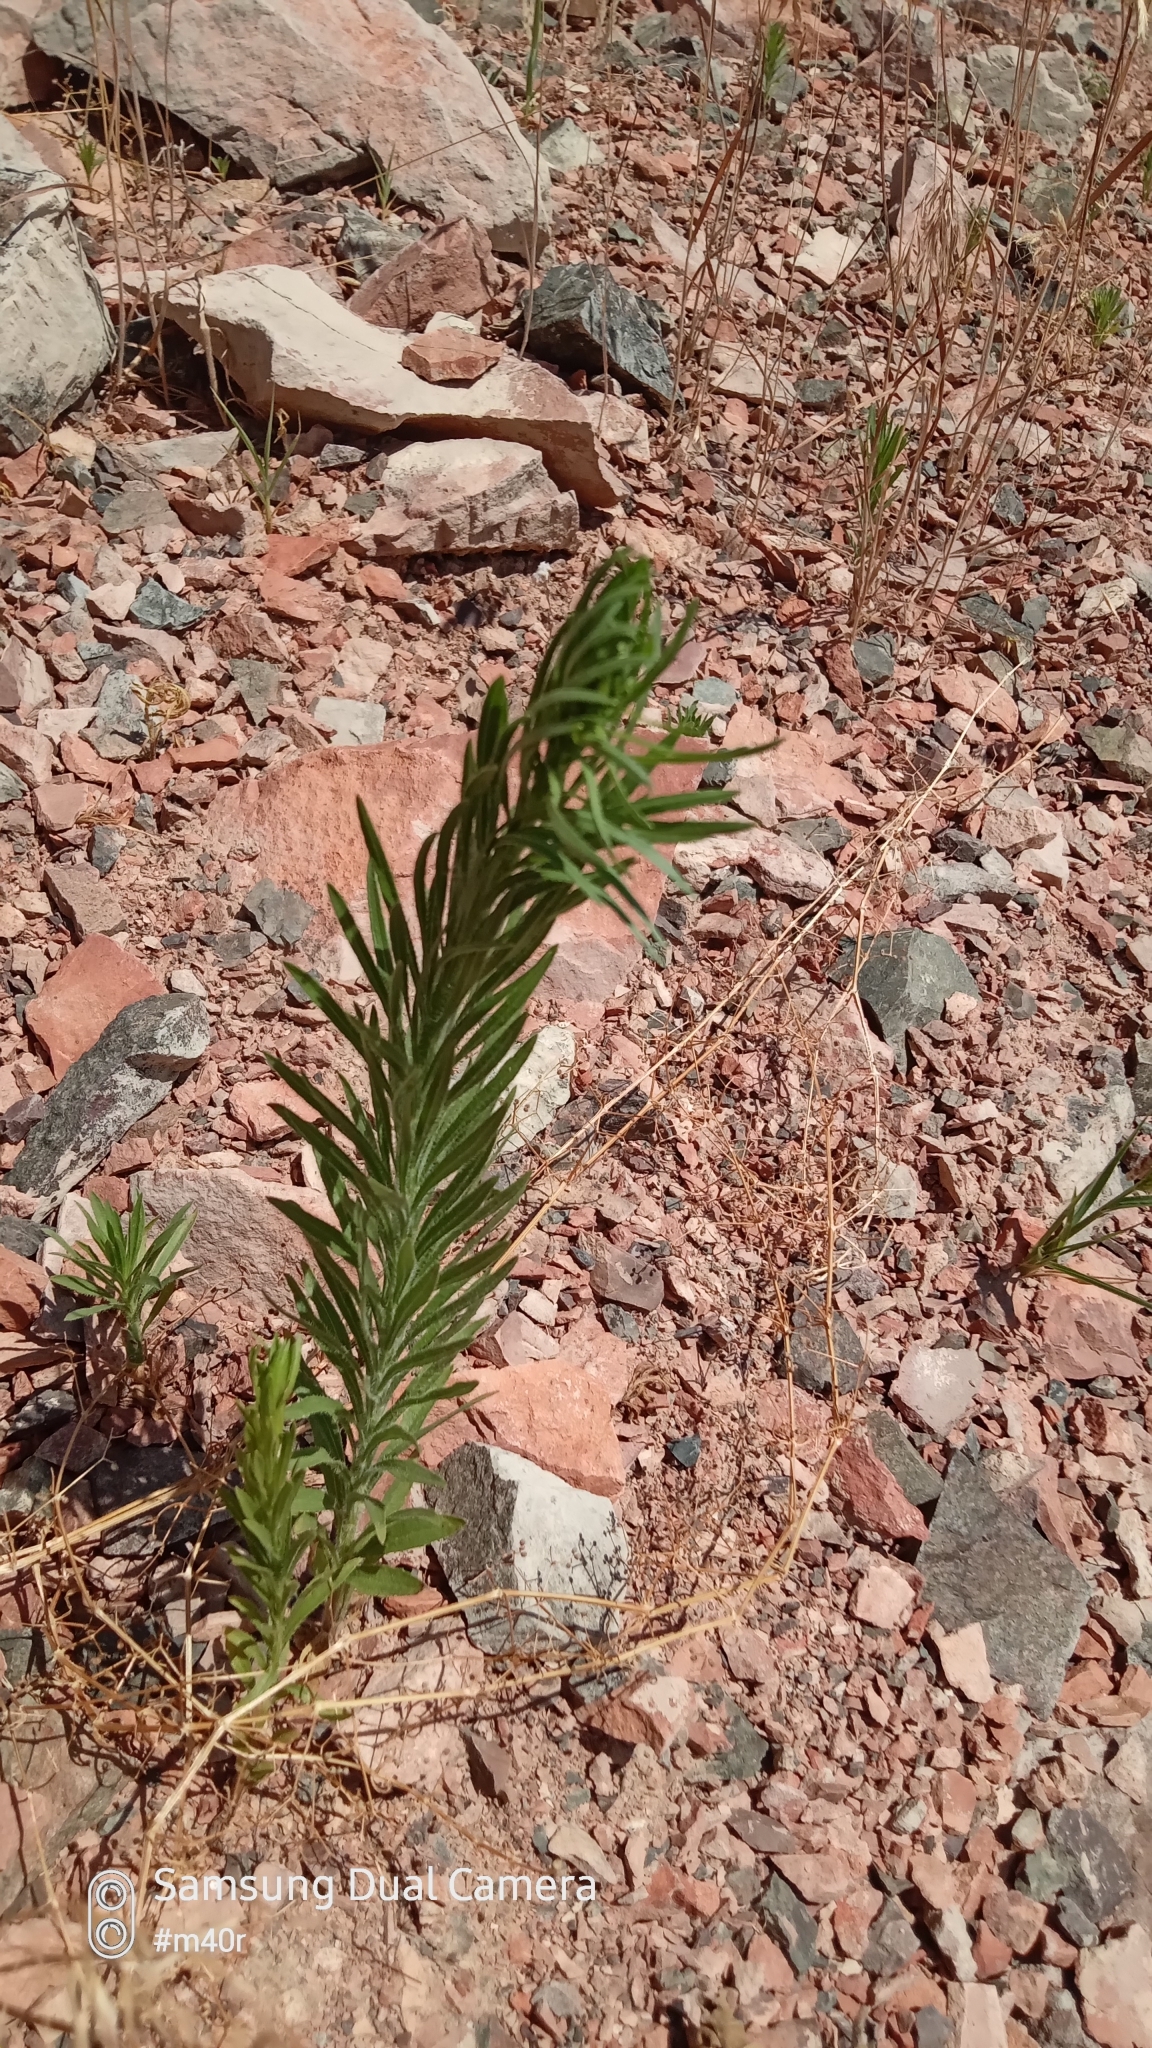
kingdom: Plantae
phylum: Tracheophyta
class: Magnoliopsida
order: Asterales
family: Asteraceae
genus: Erigeron
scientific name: Erigeron canadensis
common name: Canadian fleabane
